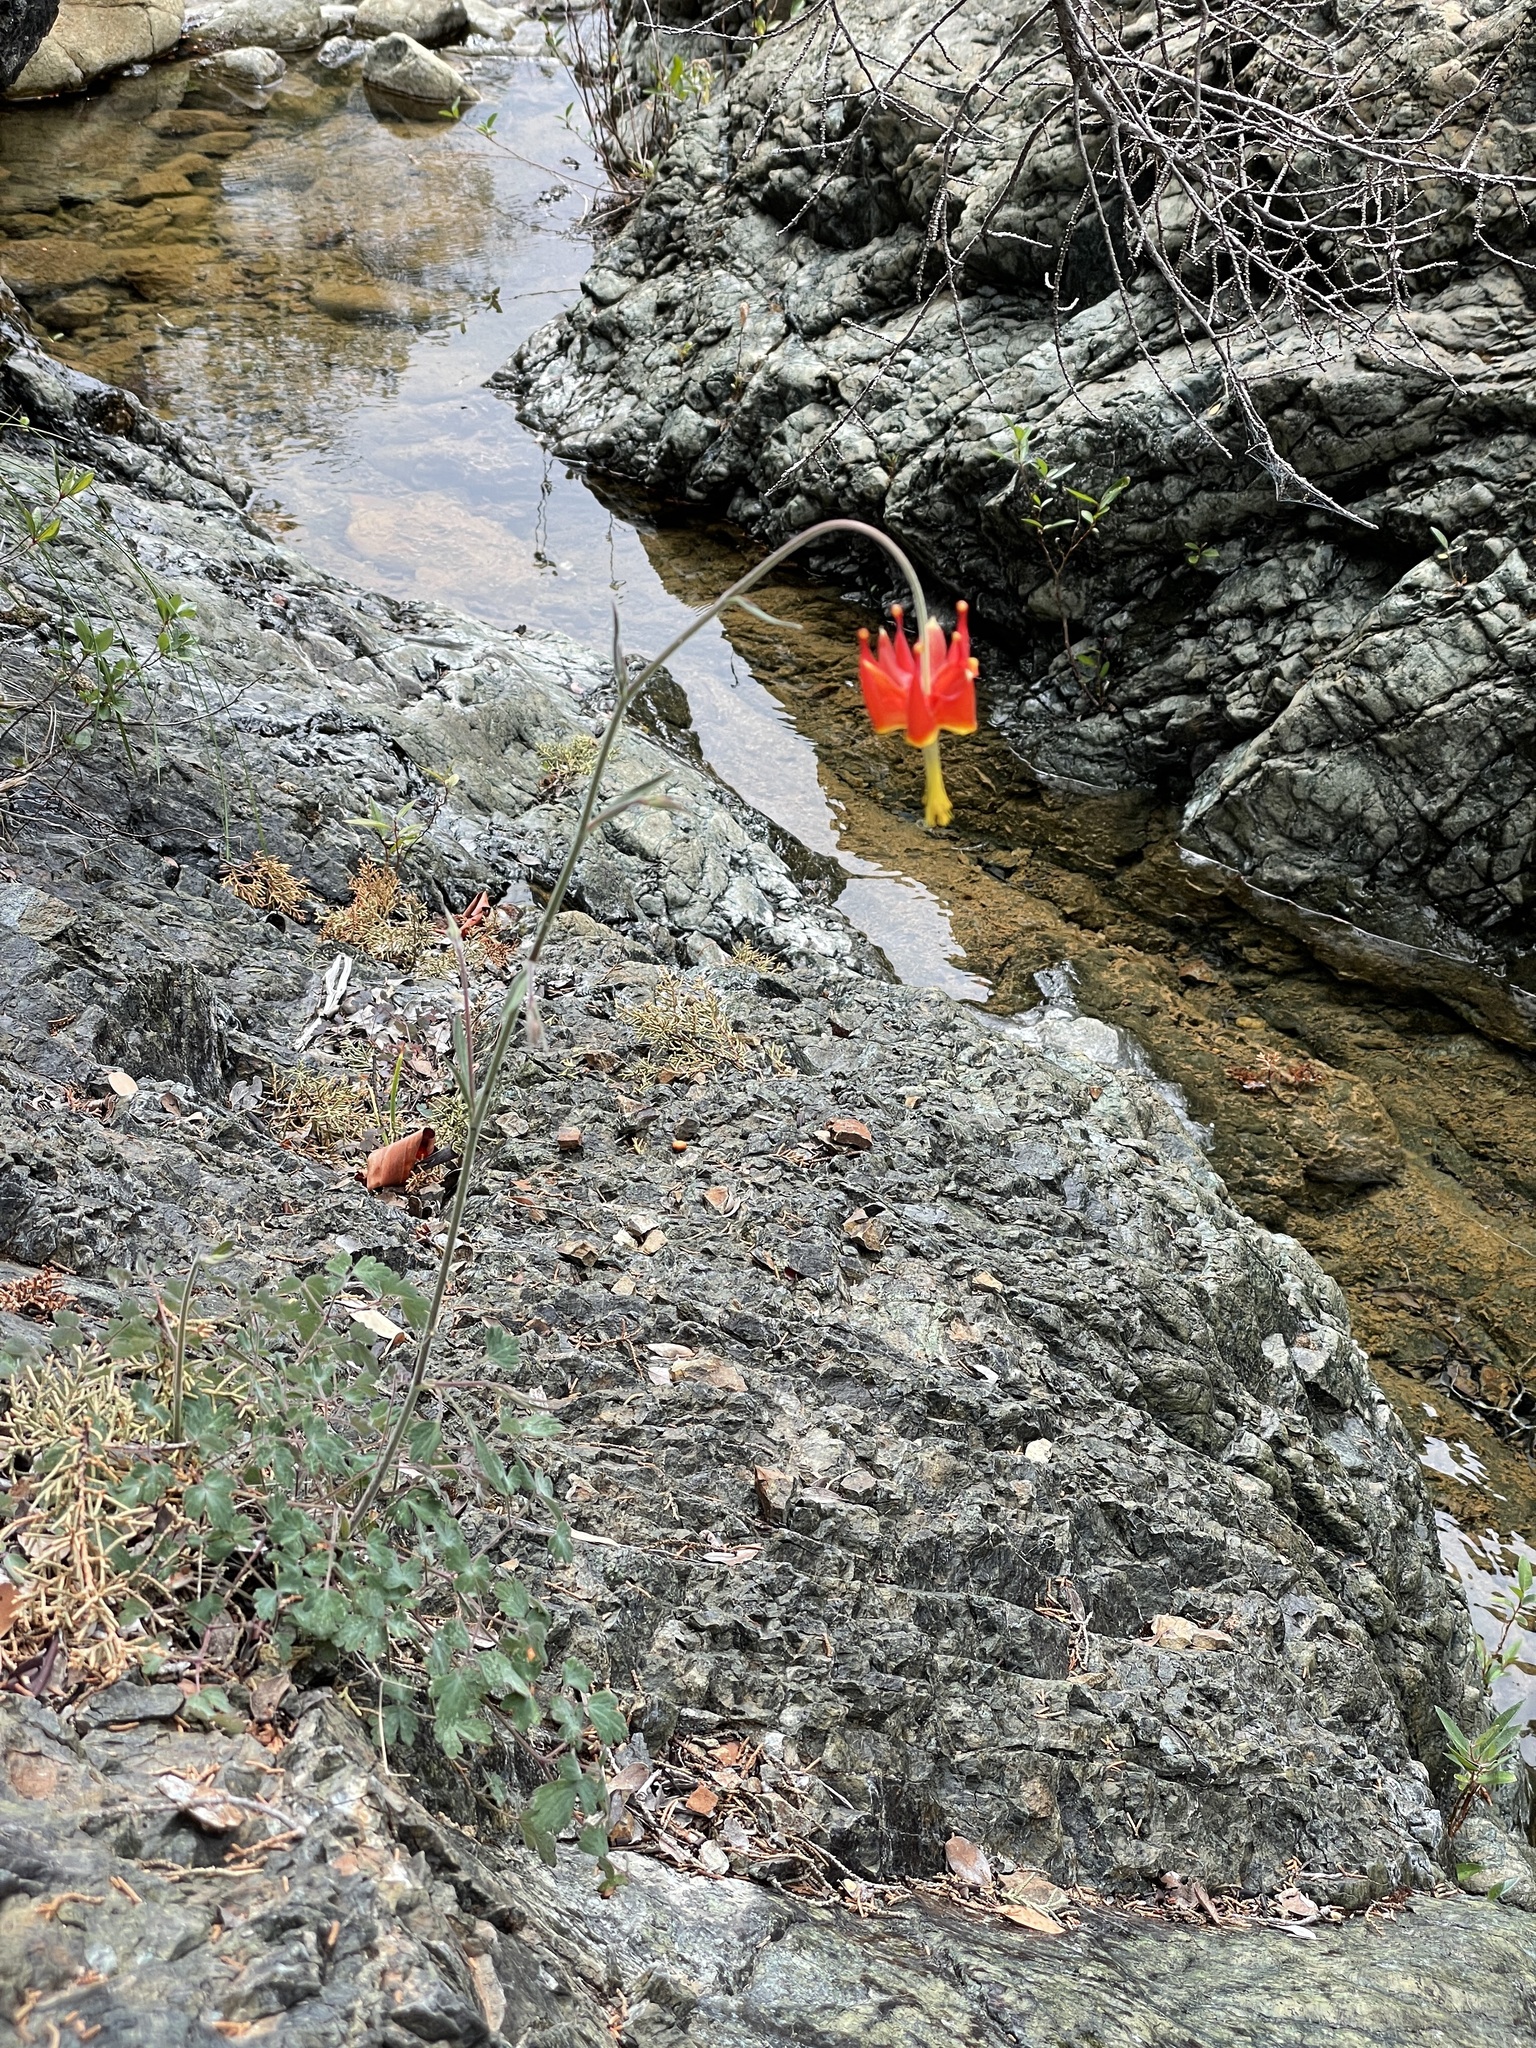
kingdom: Plantae
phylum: Tracheophyta
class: Magnoliopsida
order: Ranunculales
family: Ranunculaceae
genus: Aquilegia
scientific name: Aquilegia eximia
